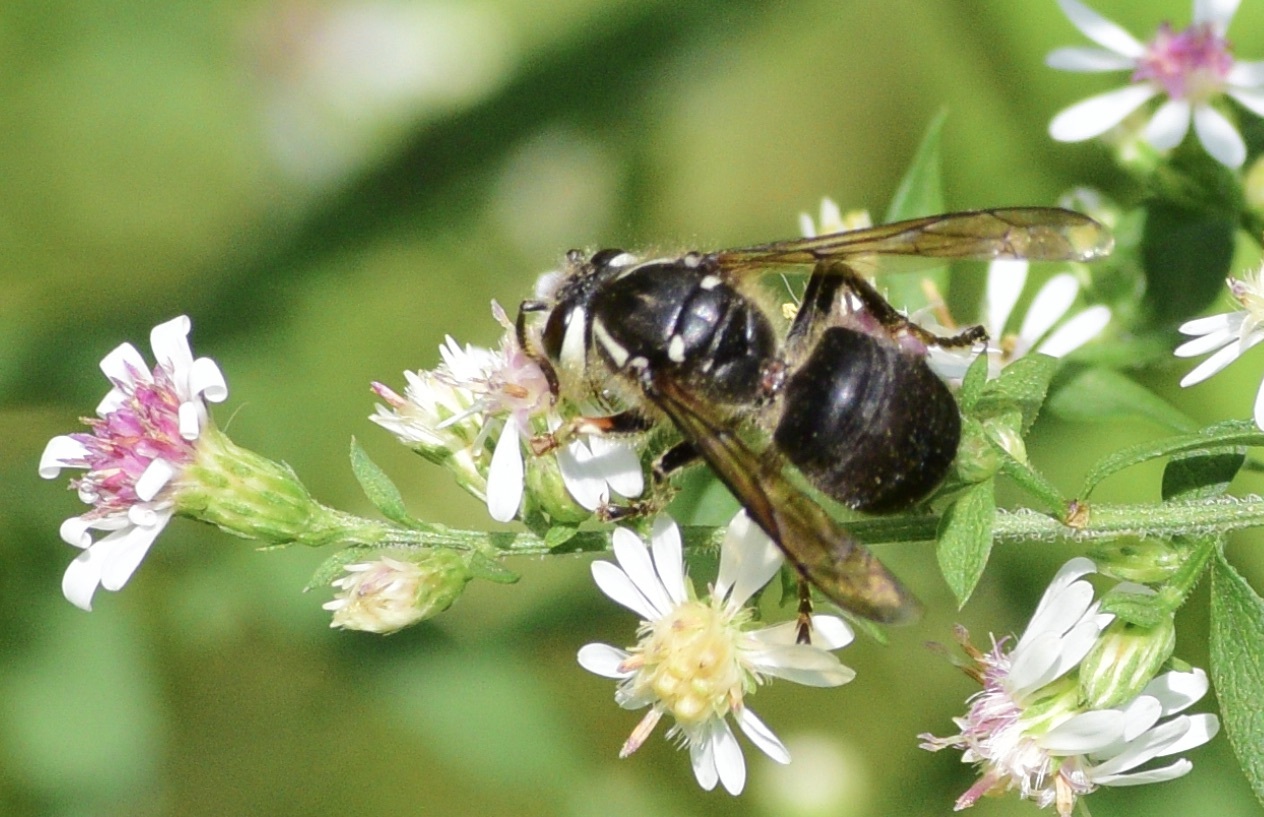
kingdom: Animalia
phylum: Arthropoda
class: Insecta
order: Hymenoptera
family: Vespidae
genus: Dolichovespula
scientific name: Dolichovespula maculata
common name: Bald-faced hornet
